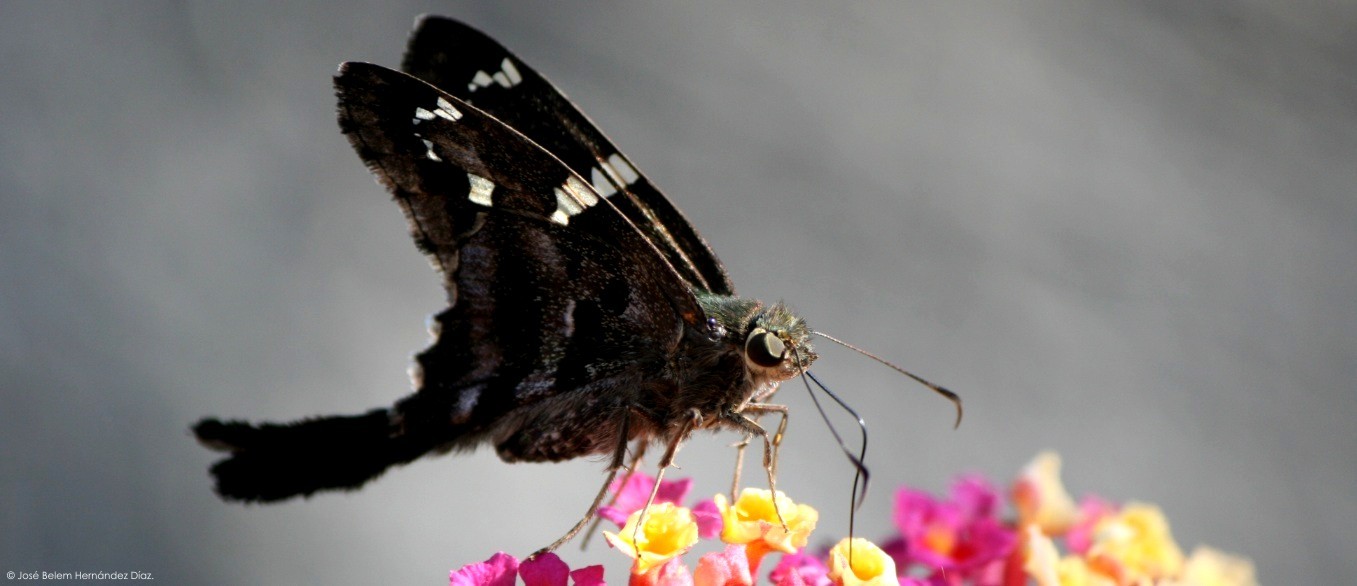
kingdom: Animalia
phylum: Arthropoda
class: Insecta
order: Lepidoptera
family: Hesperiidae
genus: Urbanus
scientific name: Urbanus proteus
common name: Long-tailed skipper
